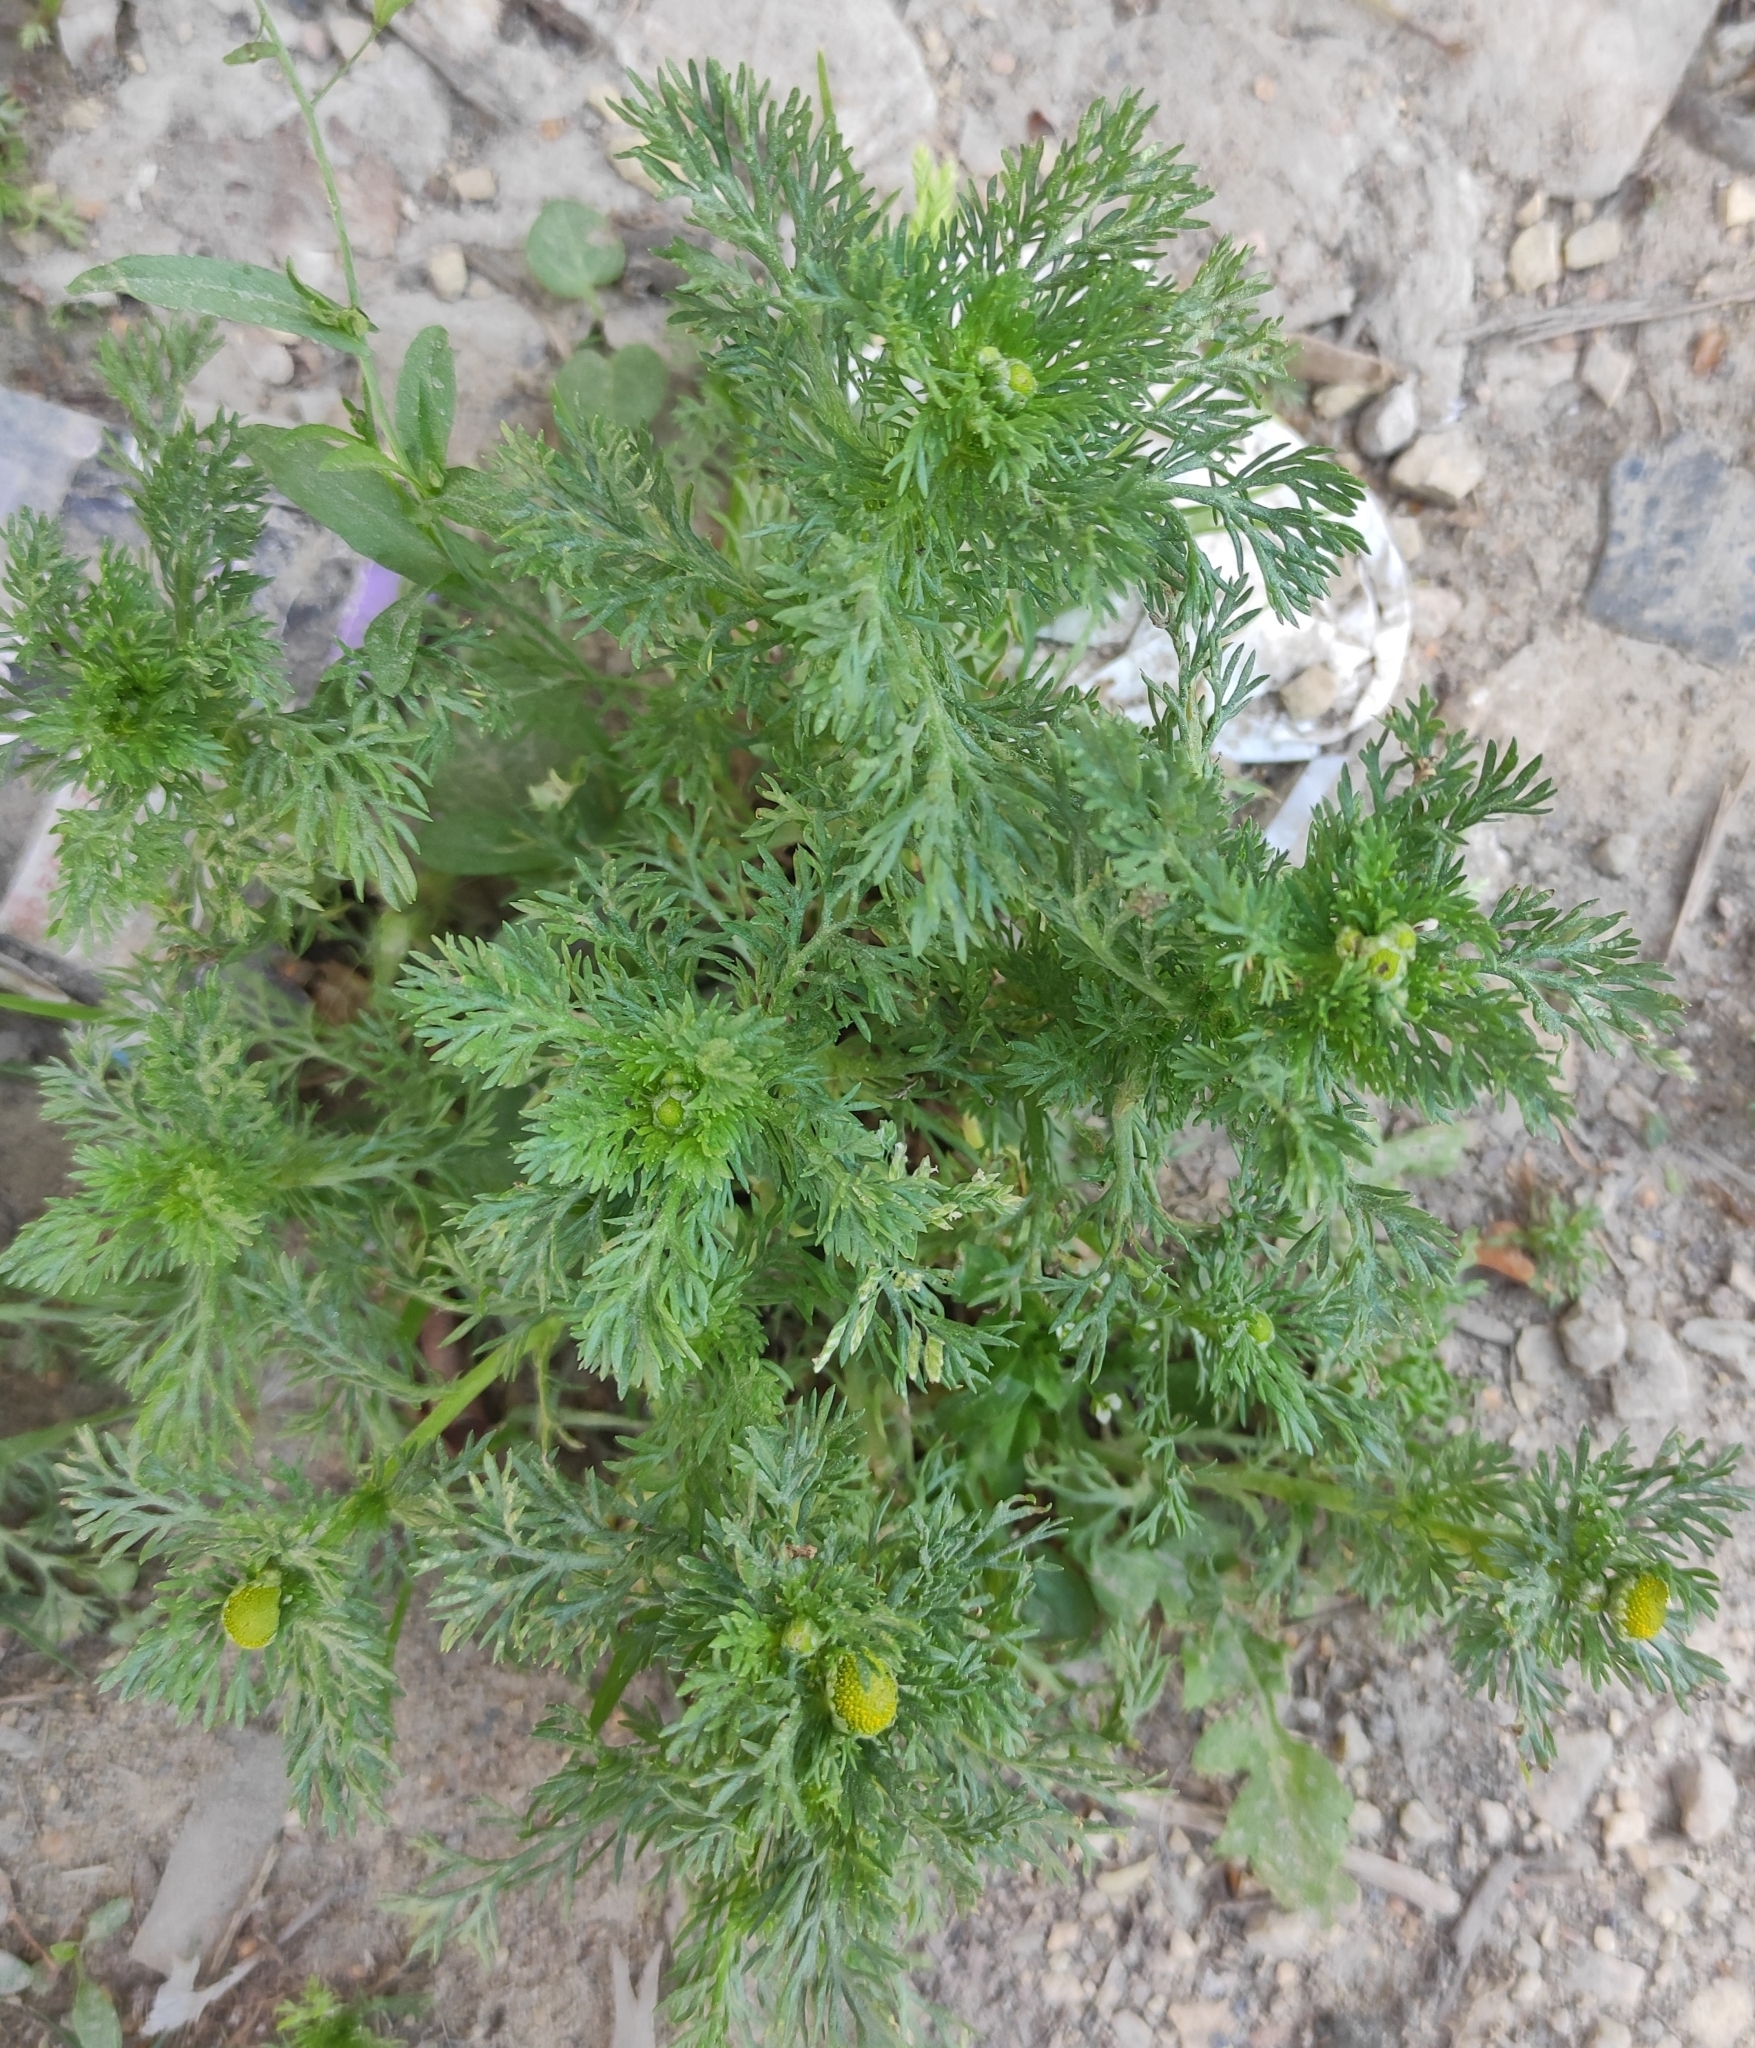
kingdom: Plantae
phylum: Tracheophyta
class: Magnoliopsida
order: Asterales
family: Asteraceae
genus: Matricaria
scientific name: Matricaria discoidea
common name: Disc mayweed
